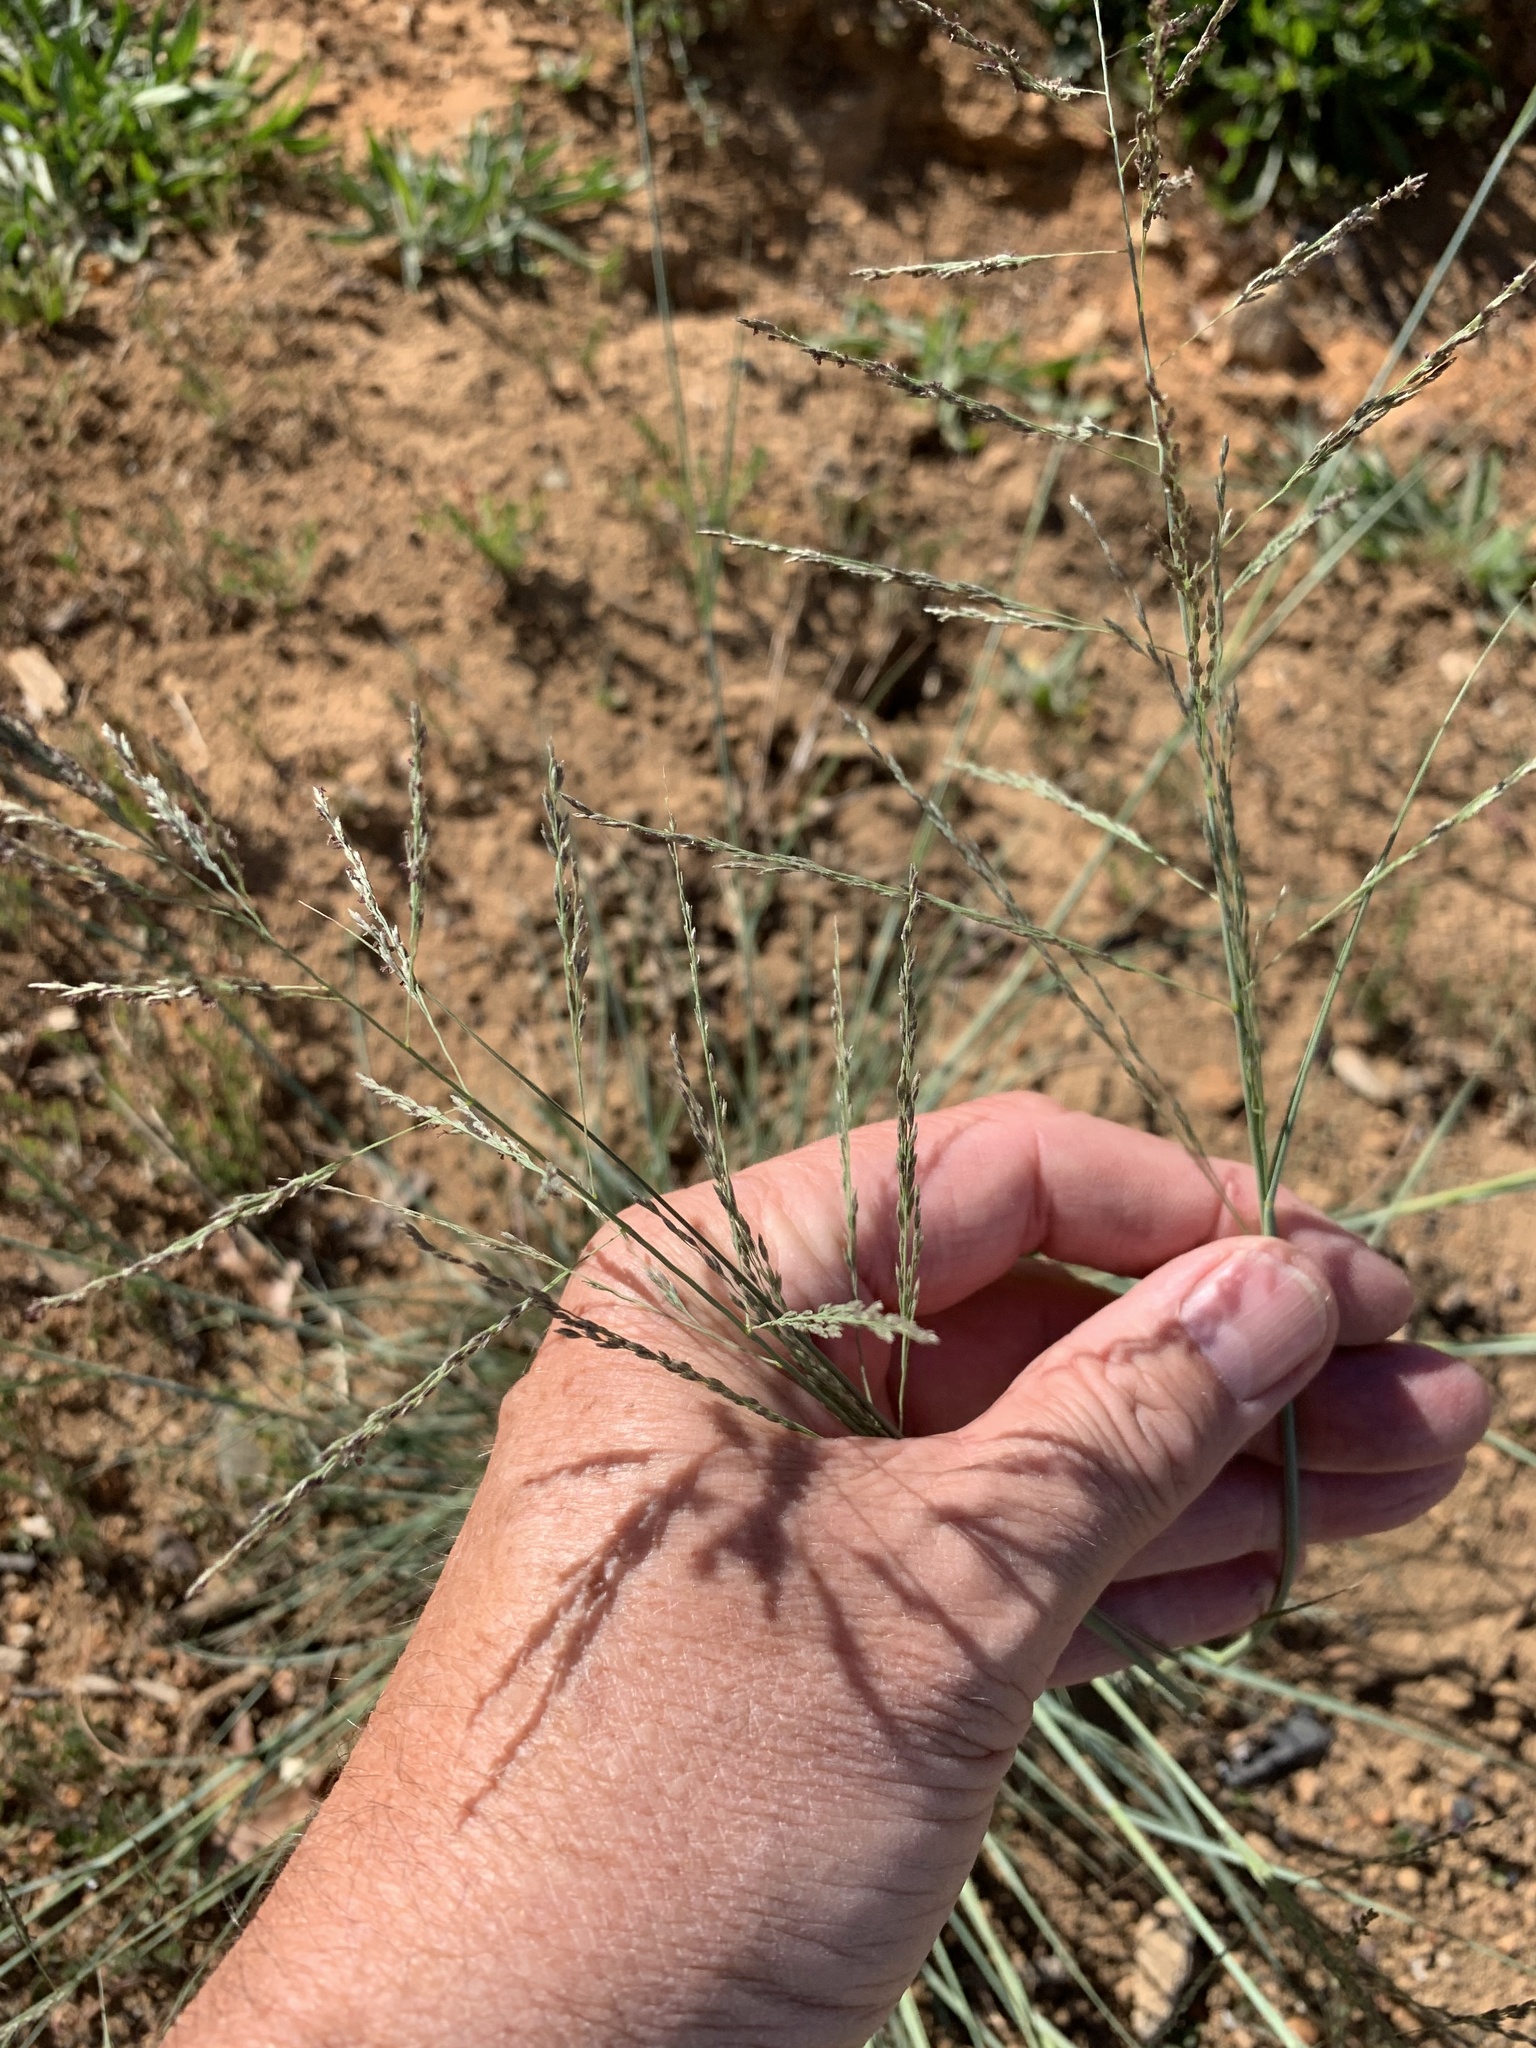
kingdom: Plantae
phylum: Tracheophyta
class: Liliopsida
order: Poales
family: Poaceae
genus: Eragrostis
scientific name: Eragrostis curvula
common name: African love-grass
